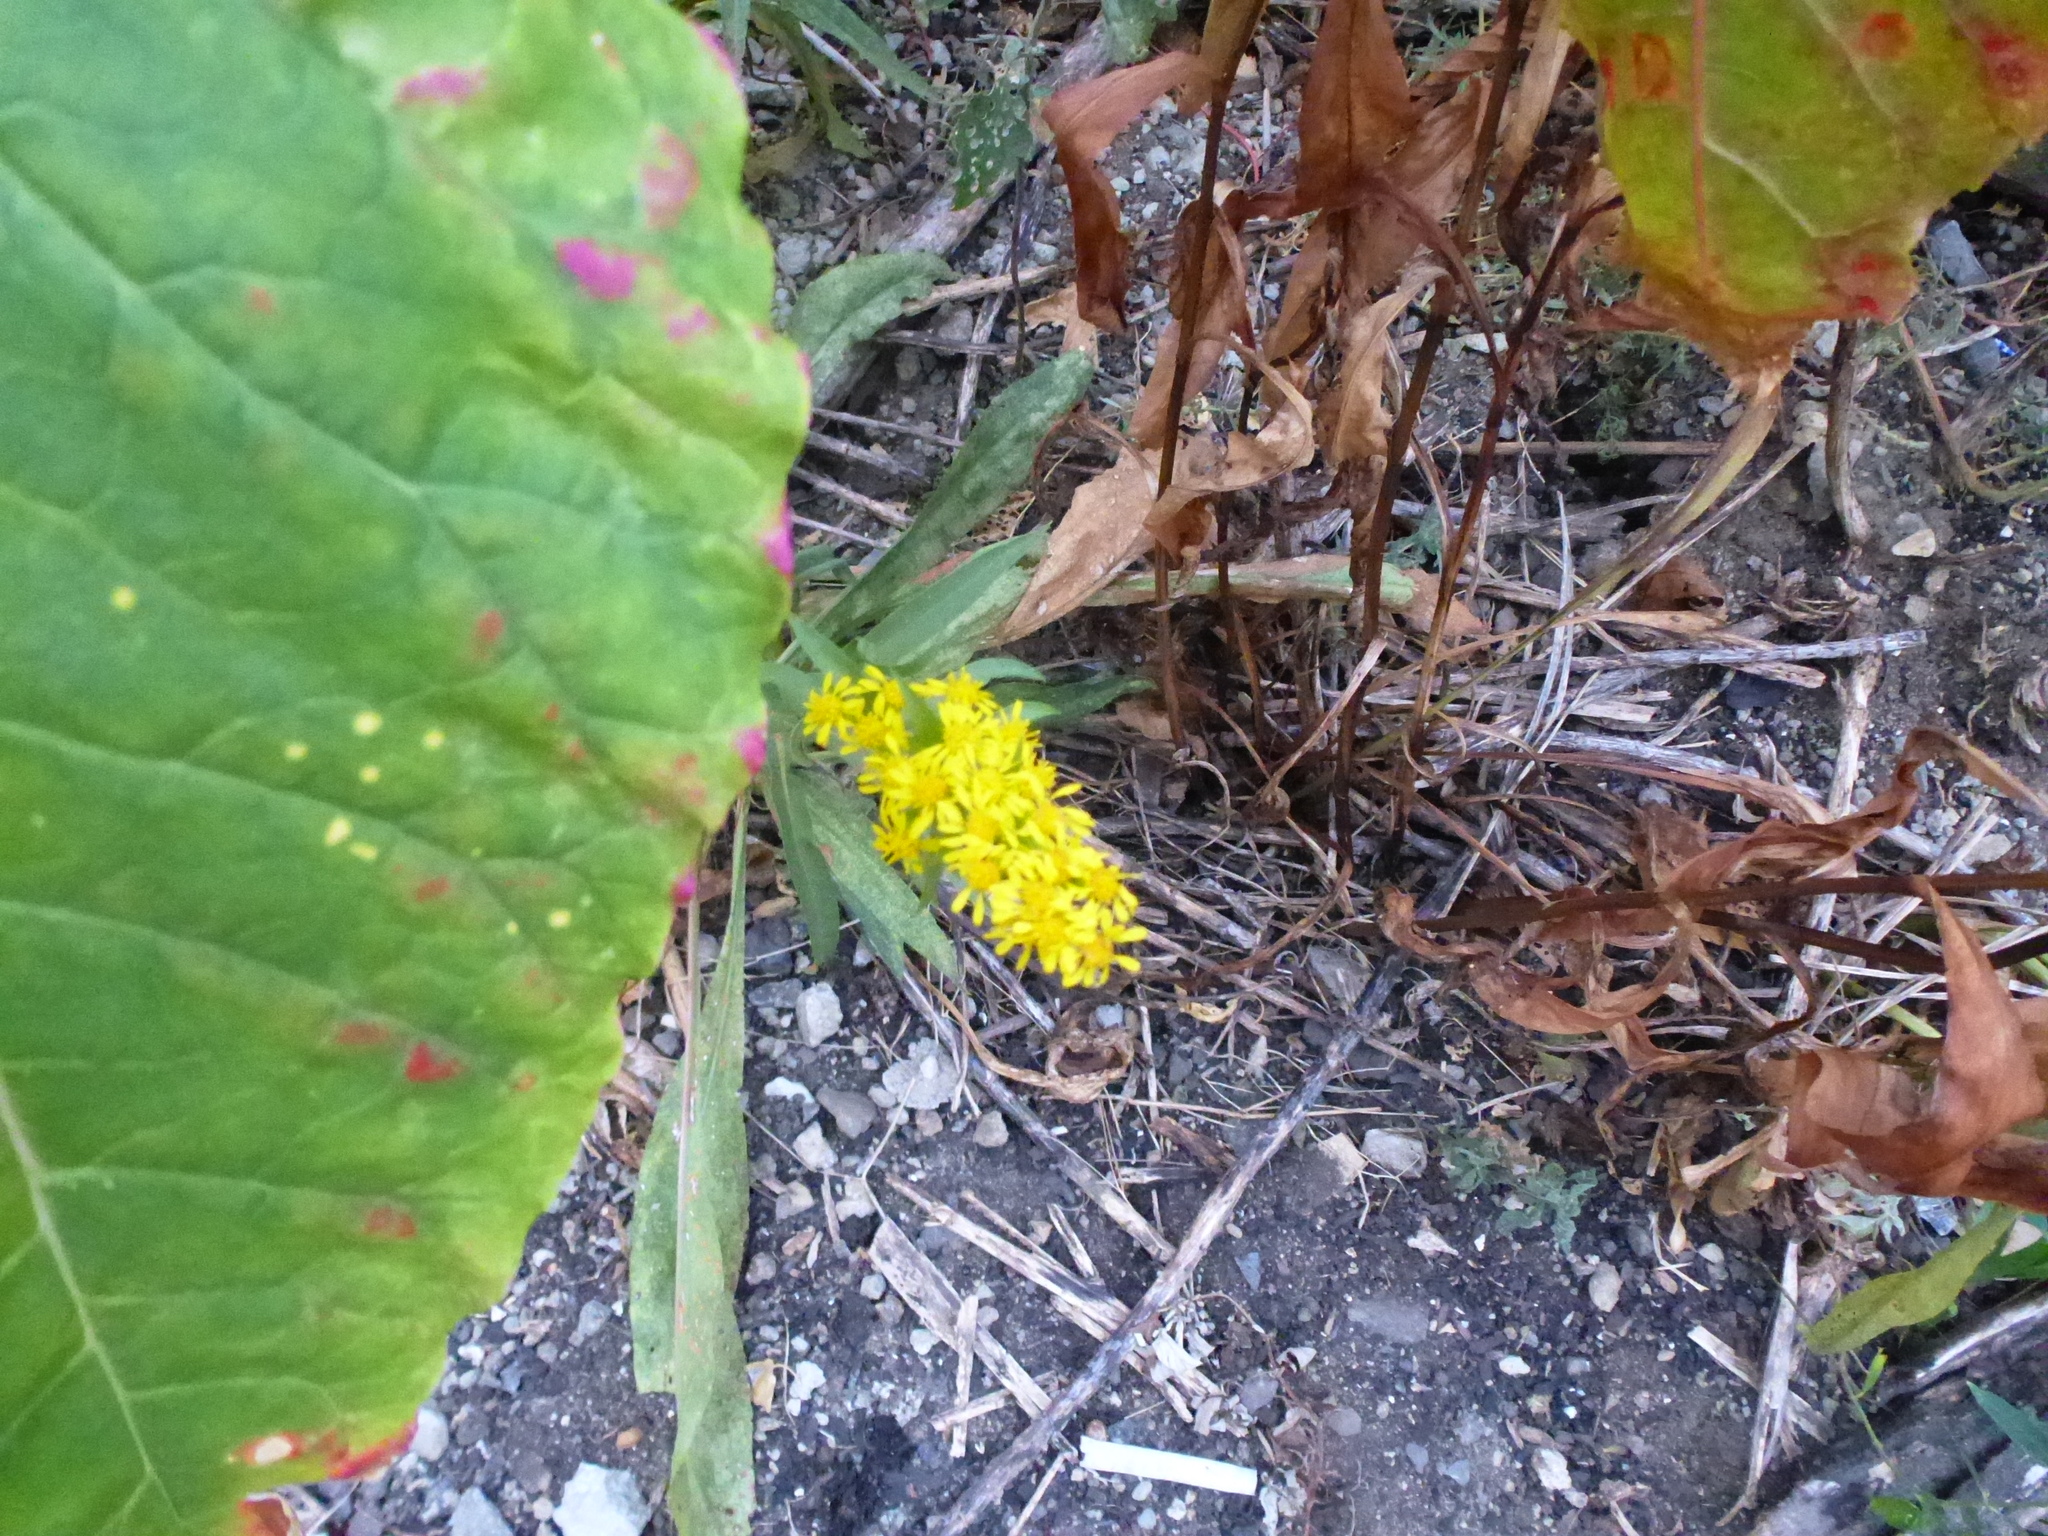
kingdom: Plantae
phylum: Tracheophyta
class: Magnoliopsida
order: Asterales
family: Asteraceae
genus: Solidago
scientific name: Solidago sempervirens
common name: Salt-marsh goldenrod
